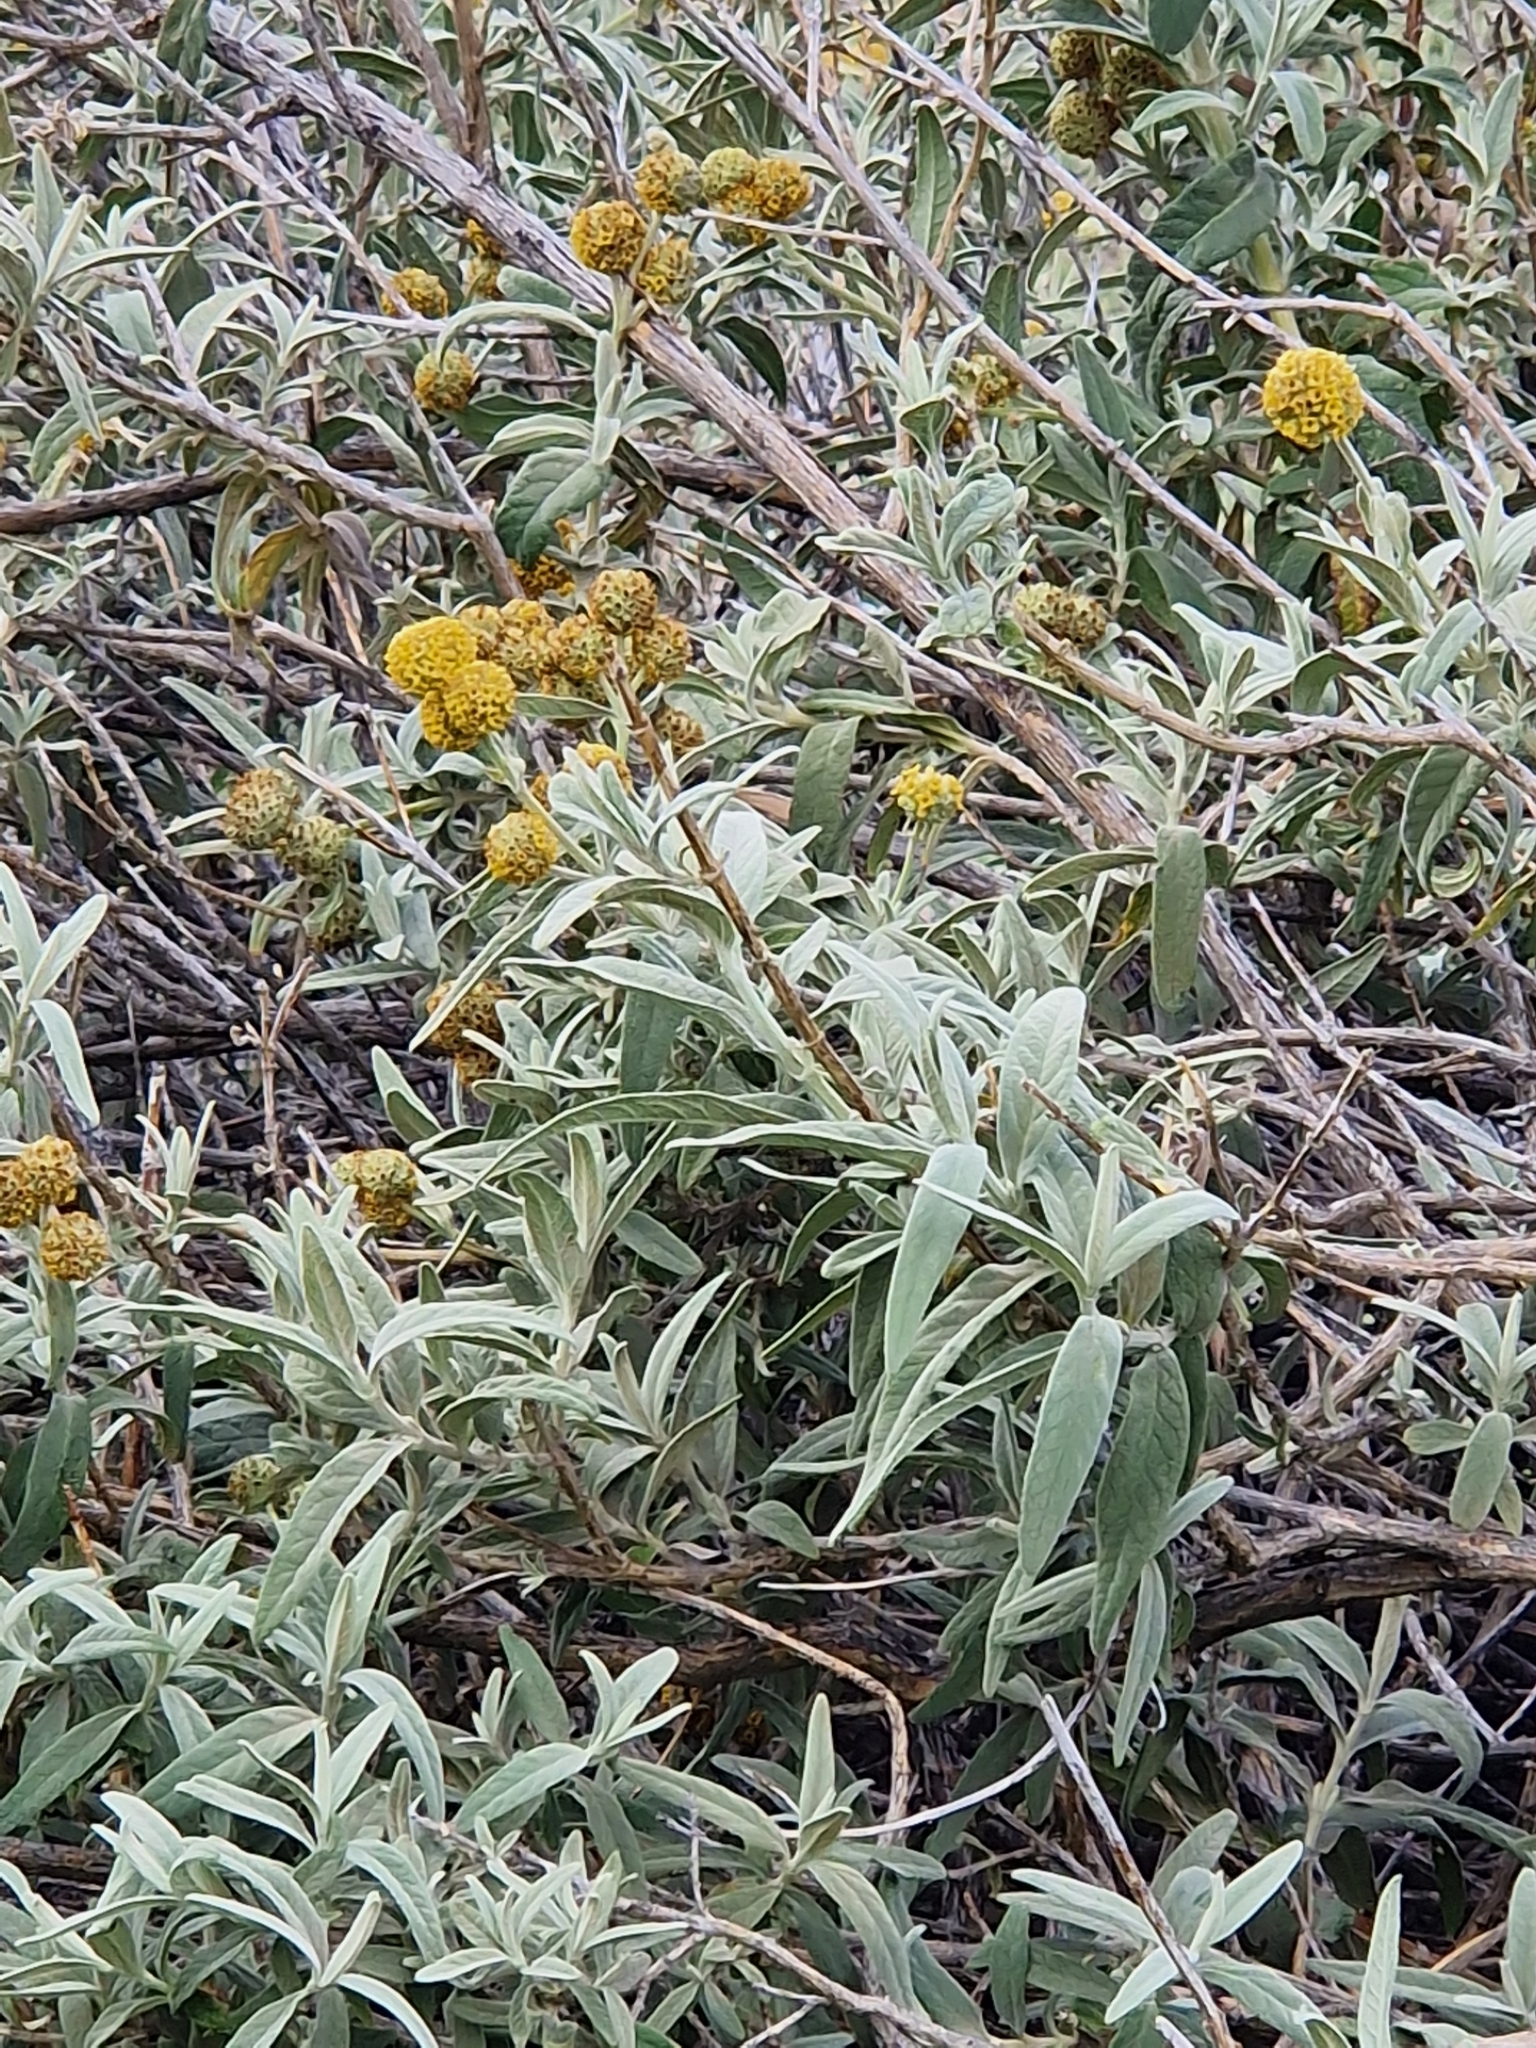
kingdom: Plantae
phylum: Tracheophyta
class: Magnoliopsida
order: Lamiales
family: Scrophulariaceae
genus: Buddleja
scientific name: Buddleja araucana
